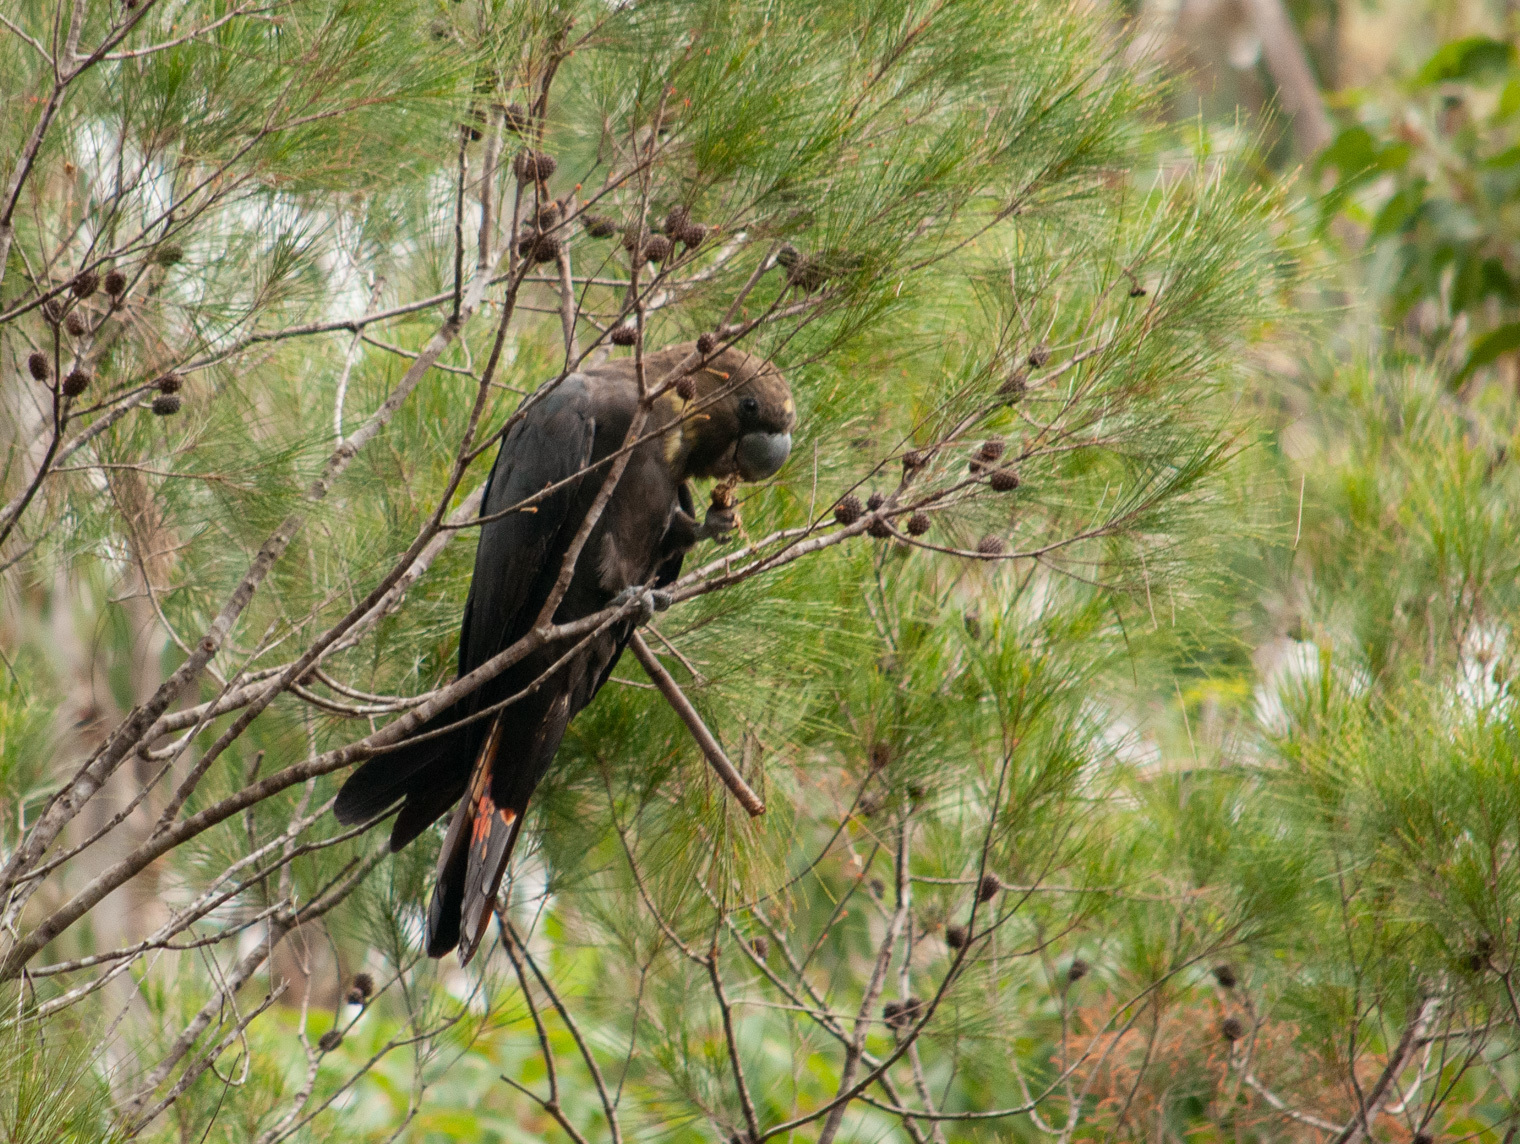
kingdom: Animalia
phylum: Chordata
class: Aves
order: Psittaciformes
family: Psittacidae
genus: Calyptorhynchus
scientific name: Calyptorhynchus lathami
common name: Glossy black cockatoo
